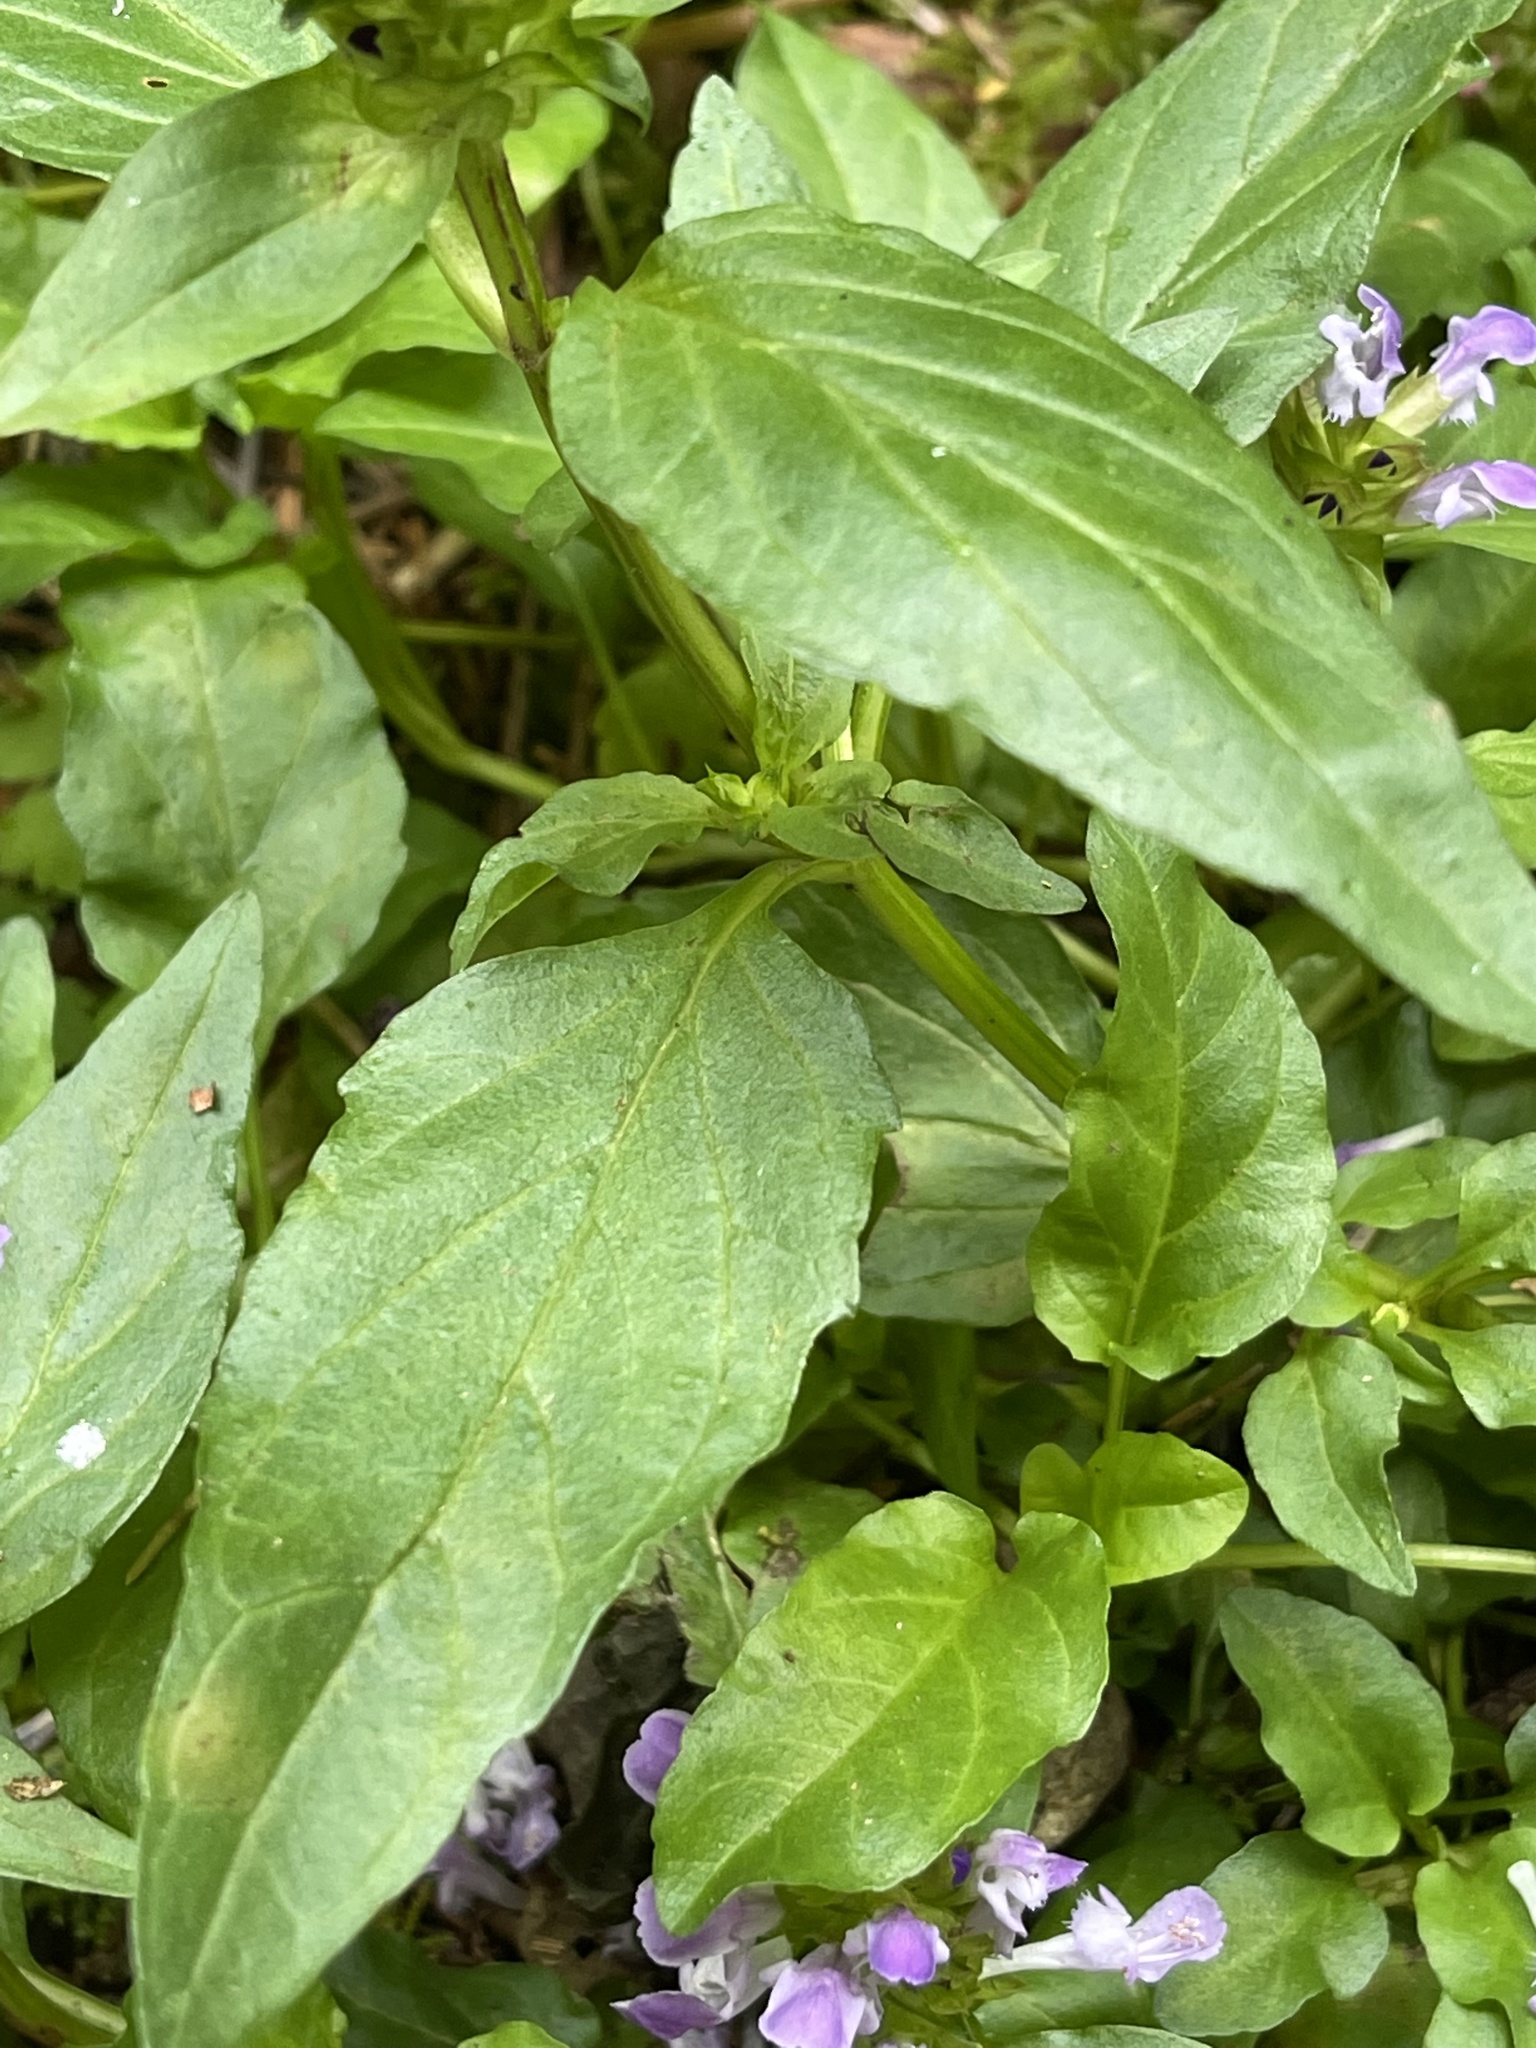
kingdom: Plantae
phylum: Tracheophyta
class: Magnoliopsida
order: Lamiales
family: Lamiaceae
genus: Prunella
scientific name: Prunella vulgaris
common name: Heal-all
